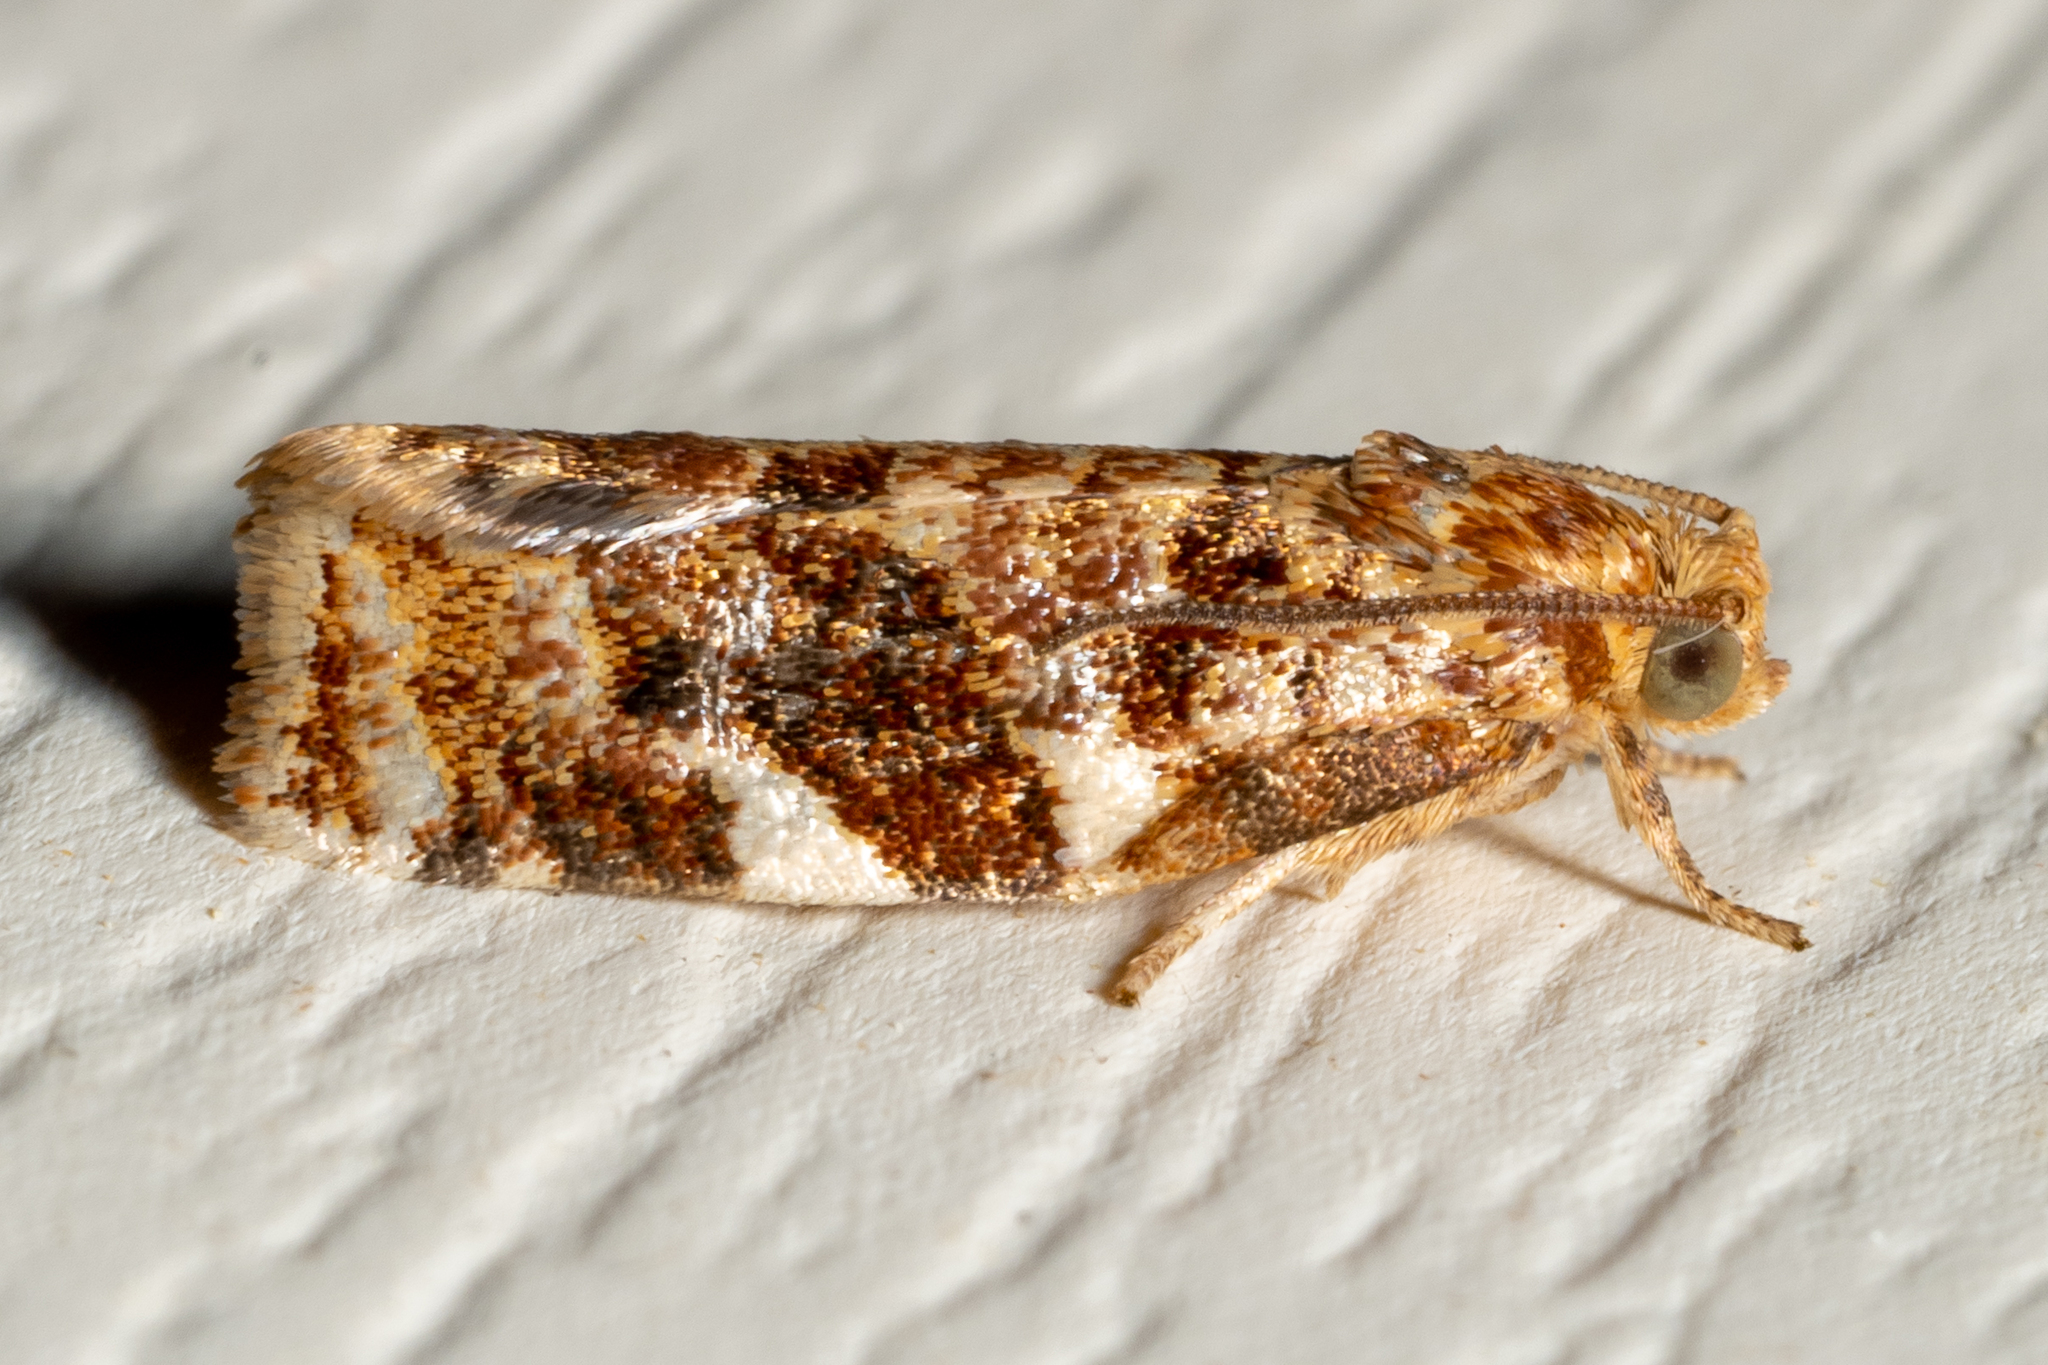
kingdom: Animalia
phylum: Arthropoda
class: Insecta
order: Lepidoptera
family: Tortricidae
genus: Archips
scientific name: Archips argyrospila
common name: Fruit-tree leafroller moth
